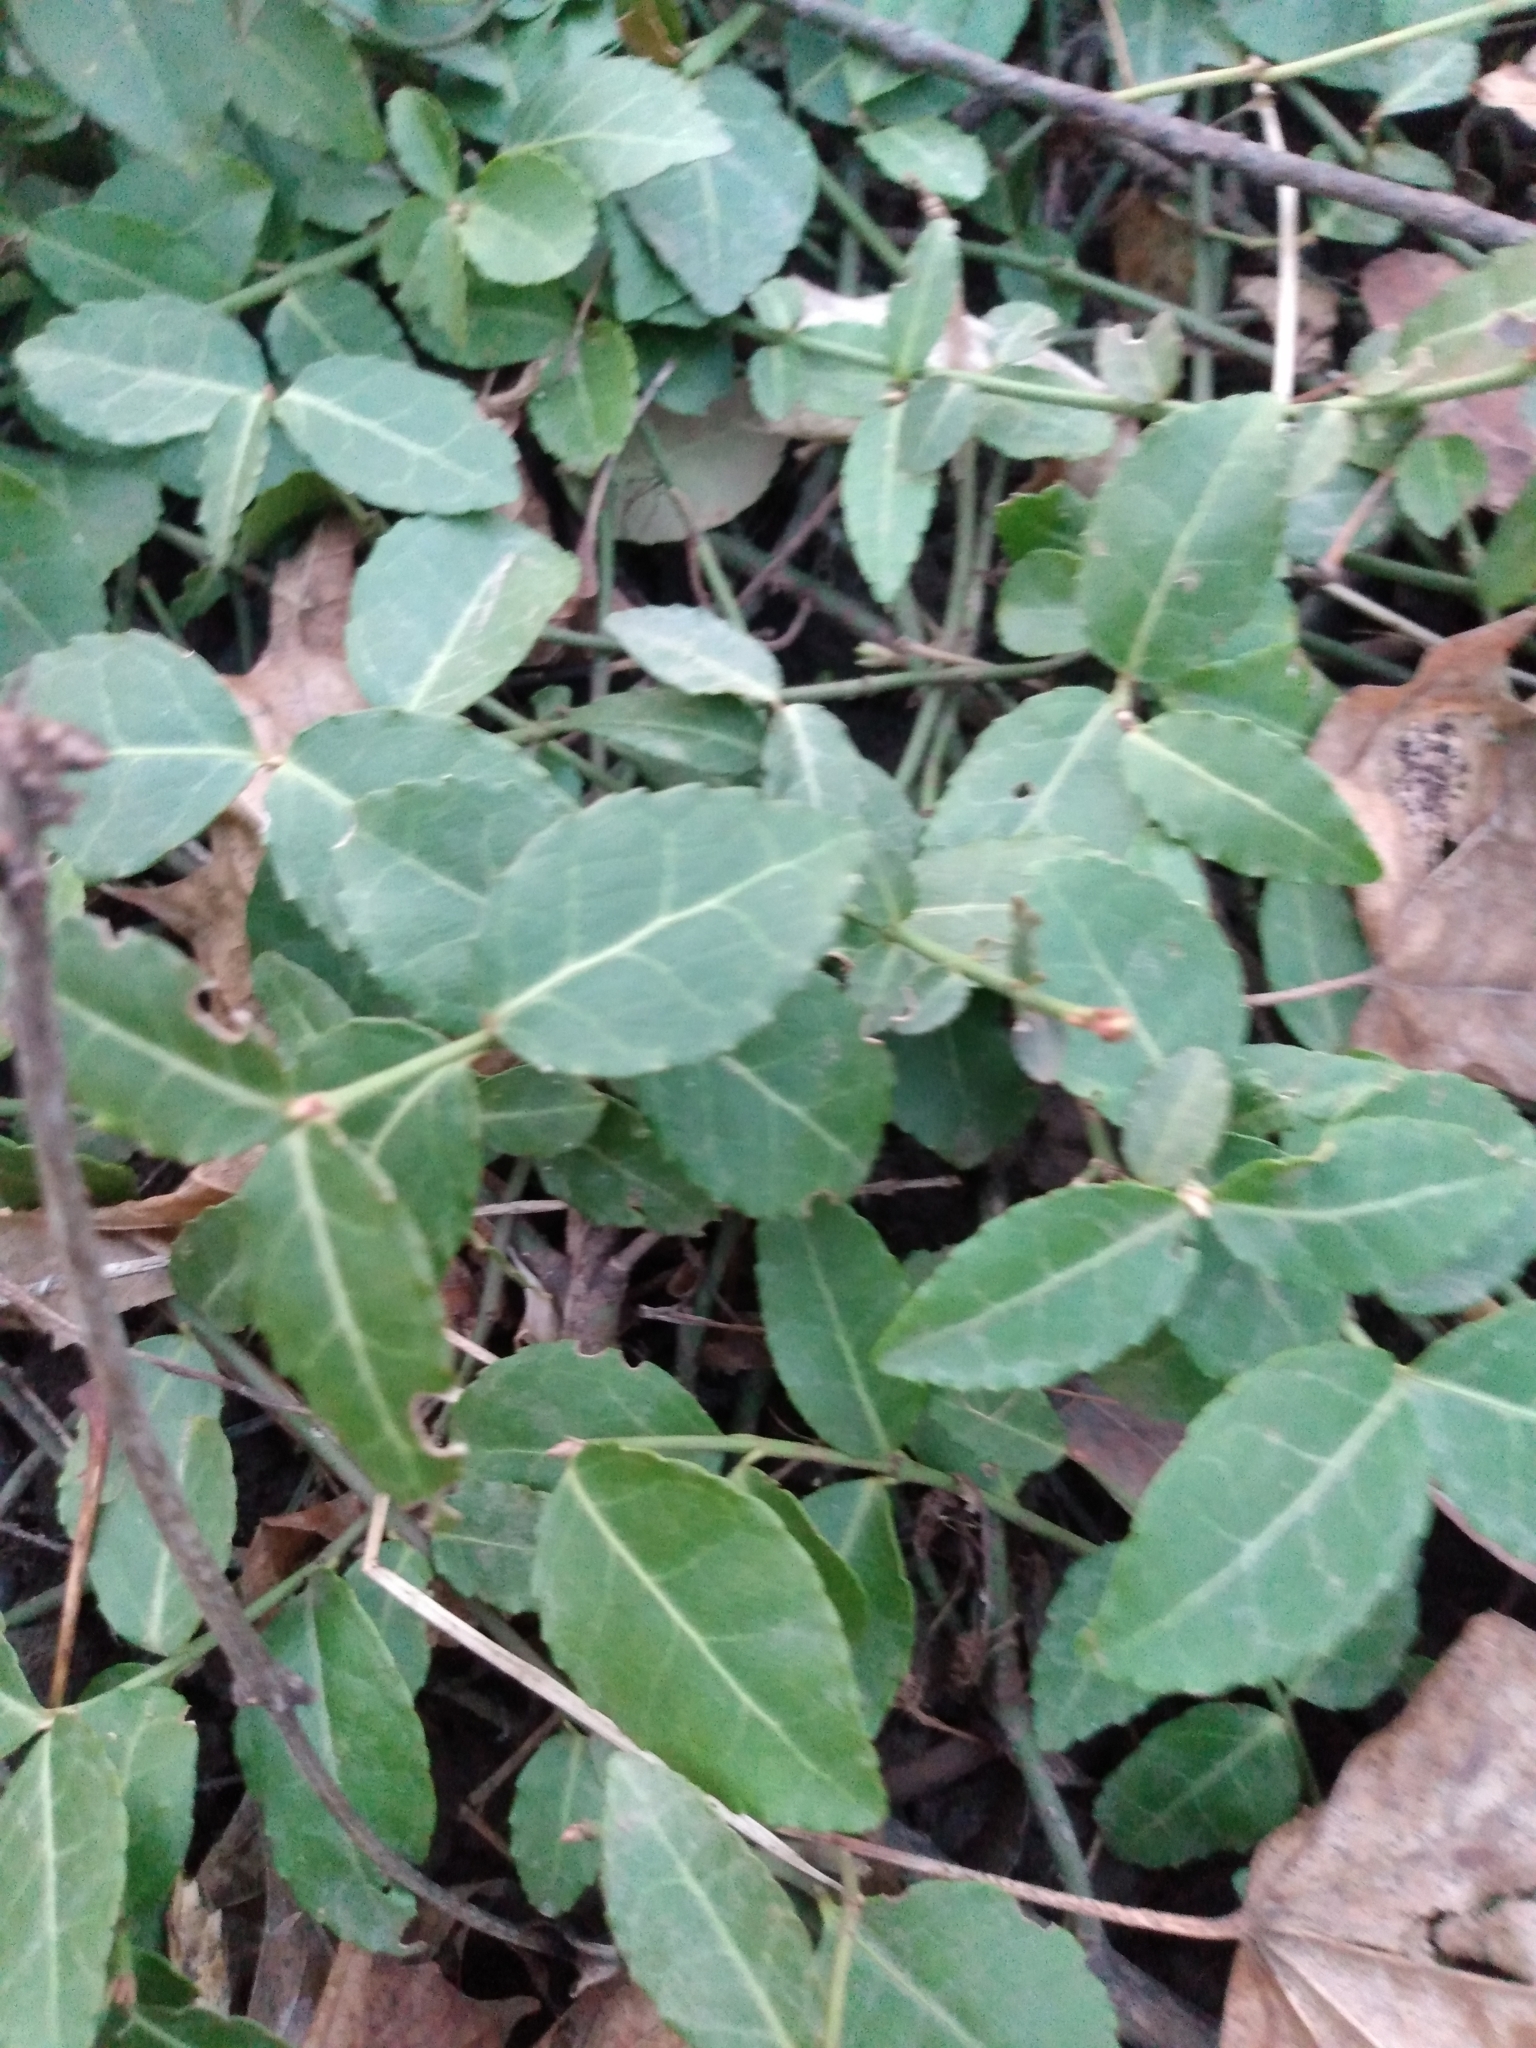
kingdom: Plantae
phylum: Tracheophyta
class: Magnoliopsida
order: Celastrales
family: Celastraceae
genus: Euonymus
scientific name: Euonymus fortunei
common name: Climbing euonymus
